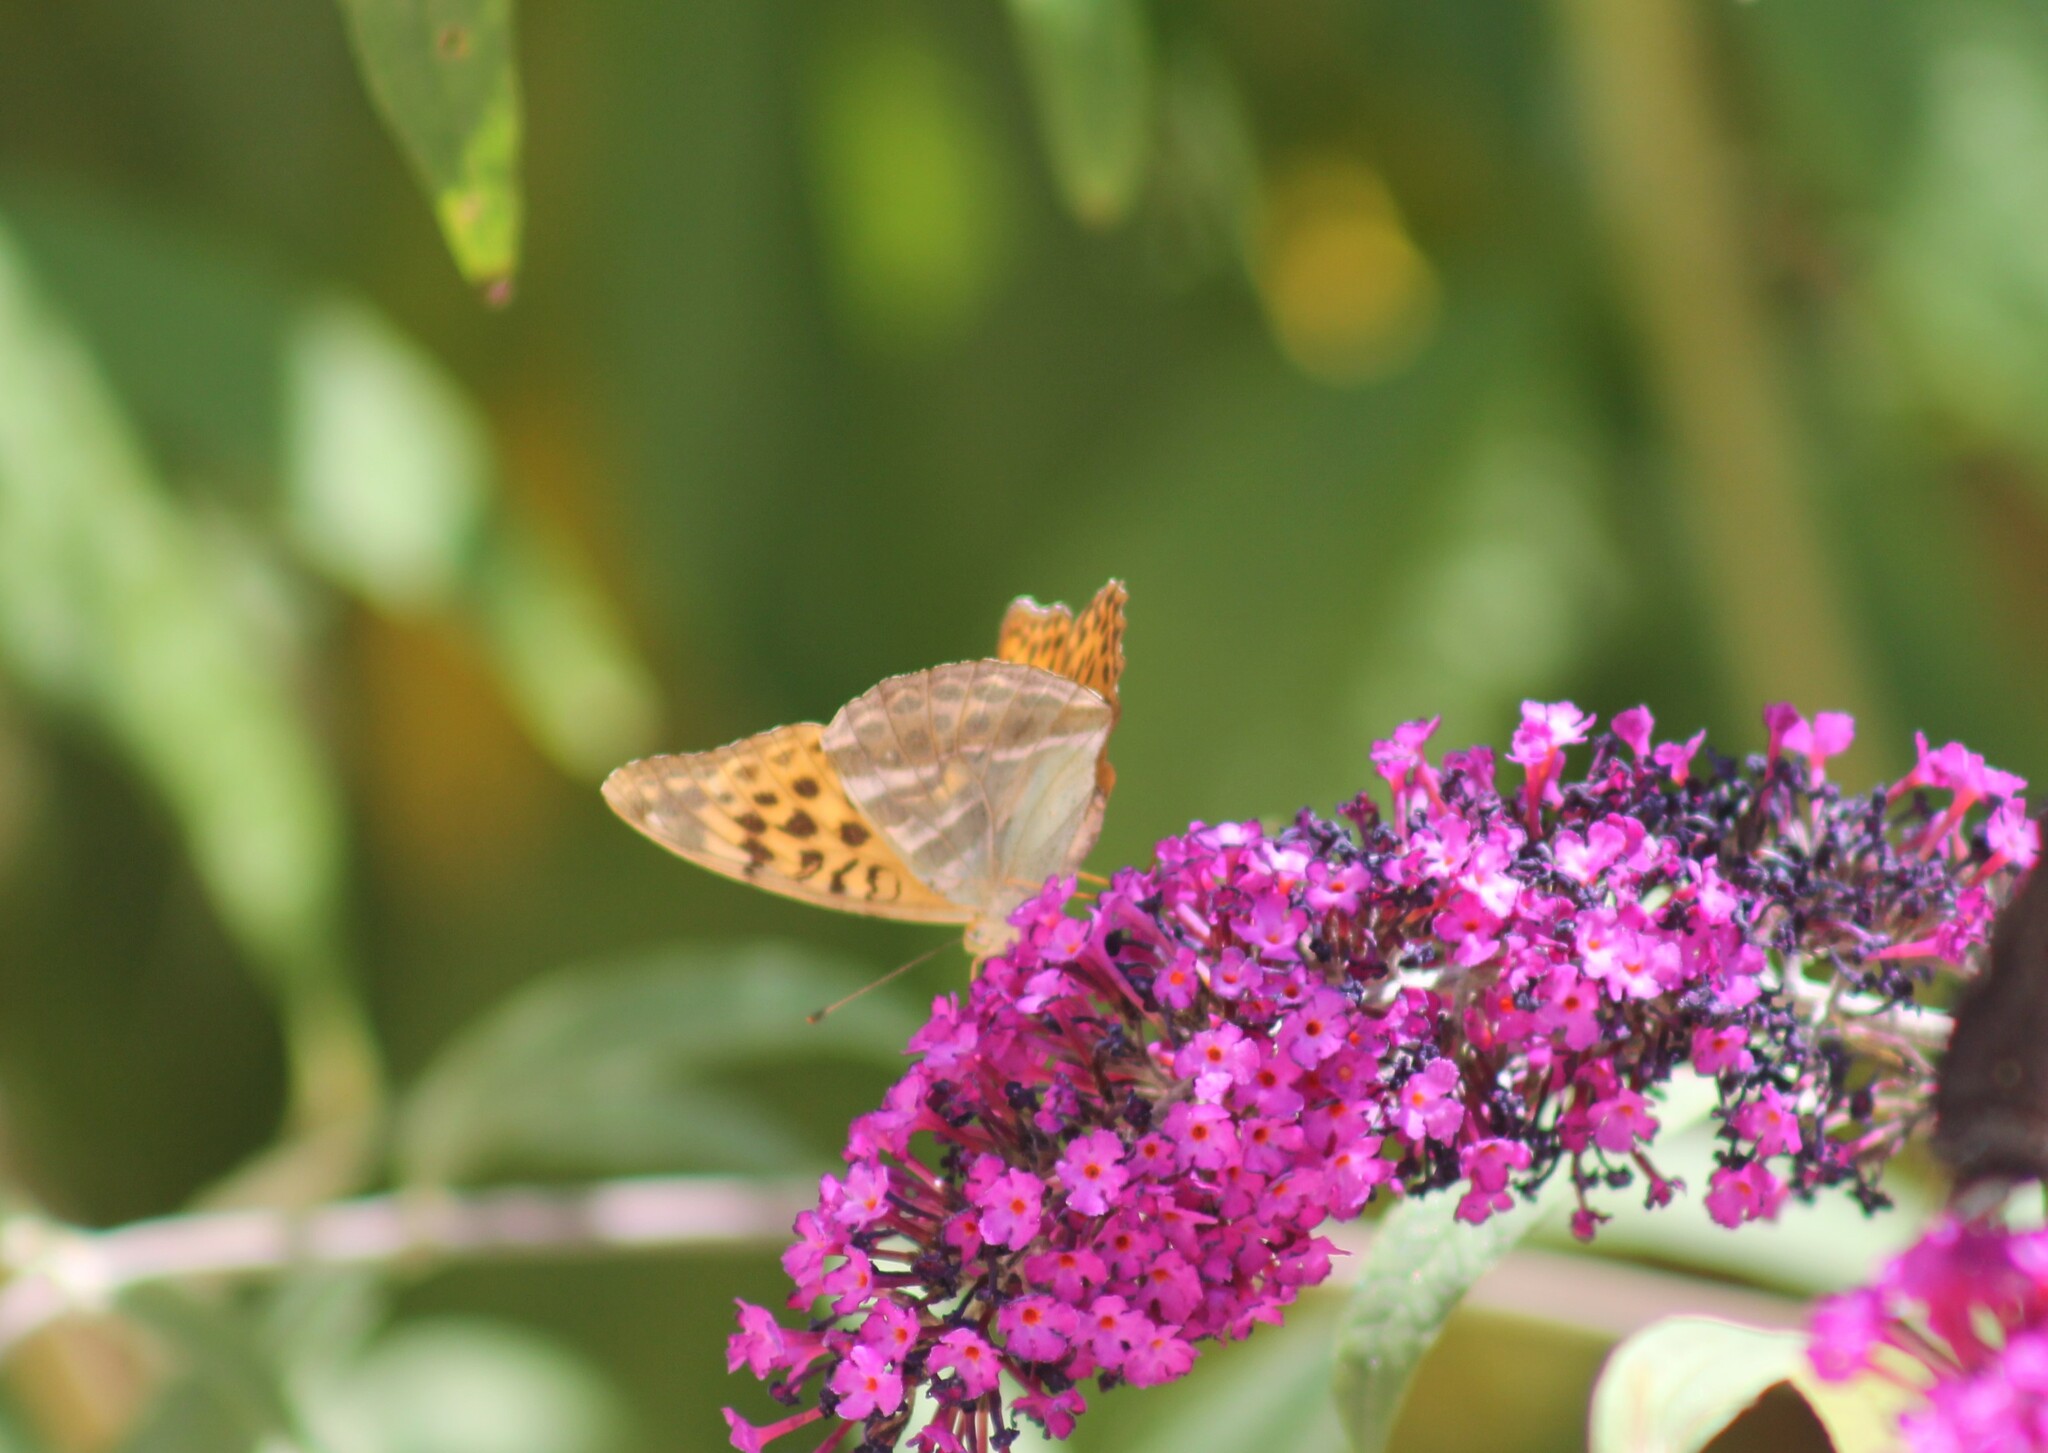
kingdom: Animalia
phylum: Arthropoda
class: Insecta
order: Lepidoptera
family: Nymphalidae
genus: Argynnis
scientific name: Argynnis paphia
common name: Silver-washed fritillary
